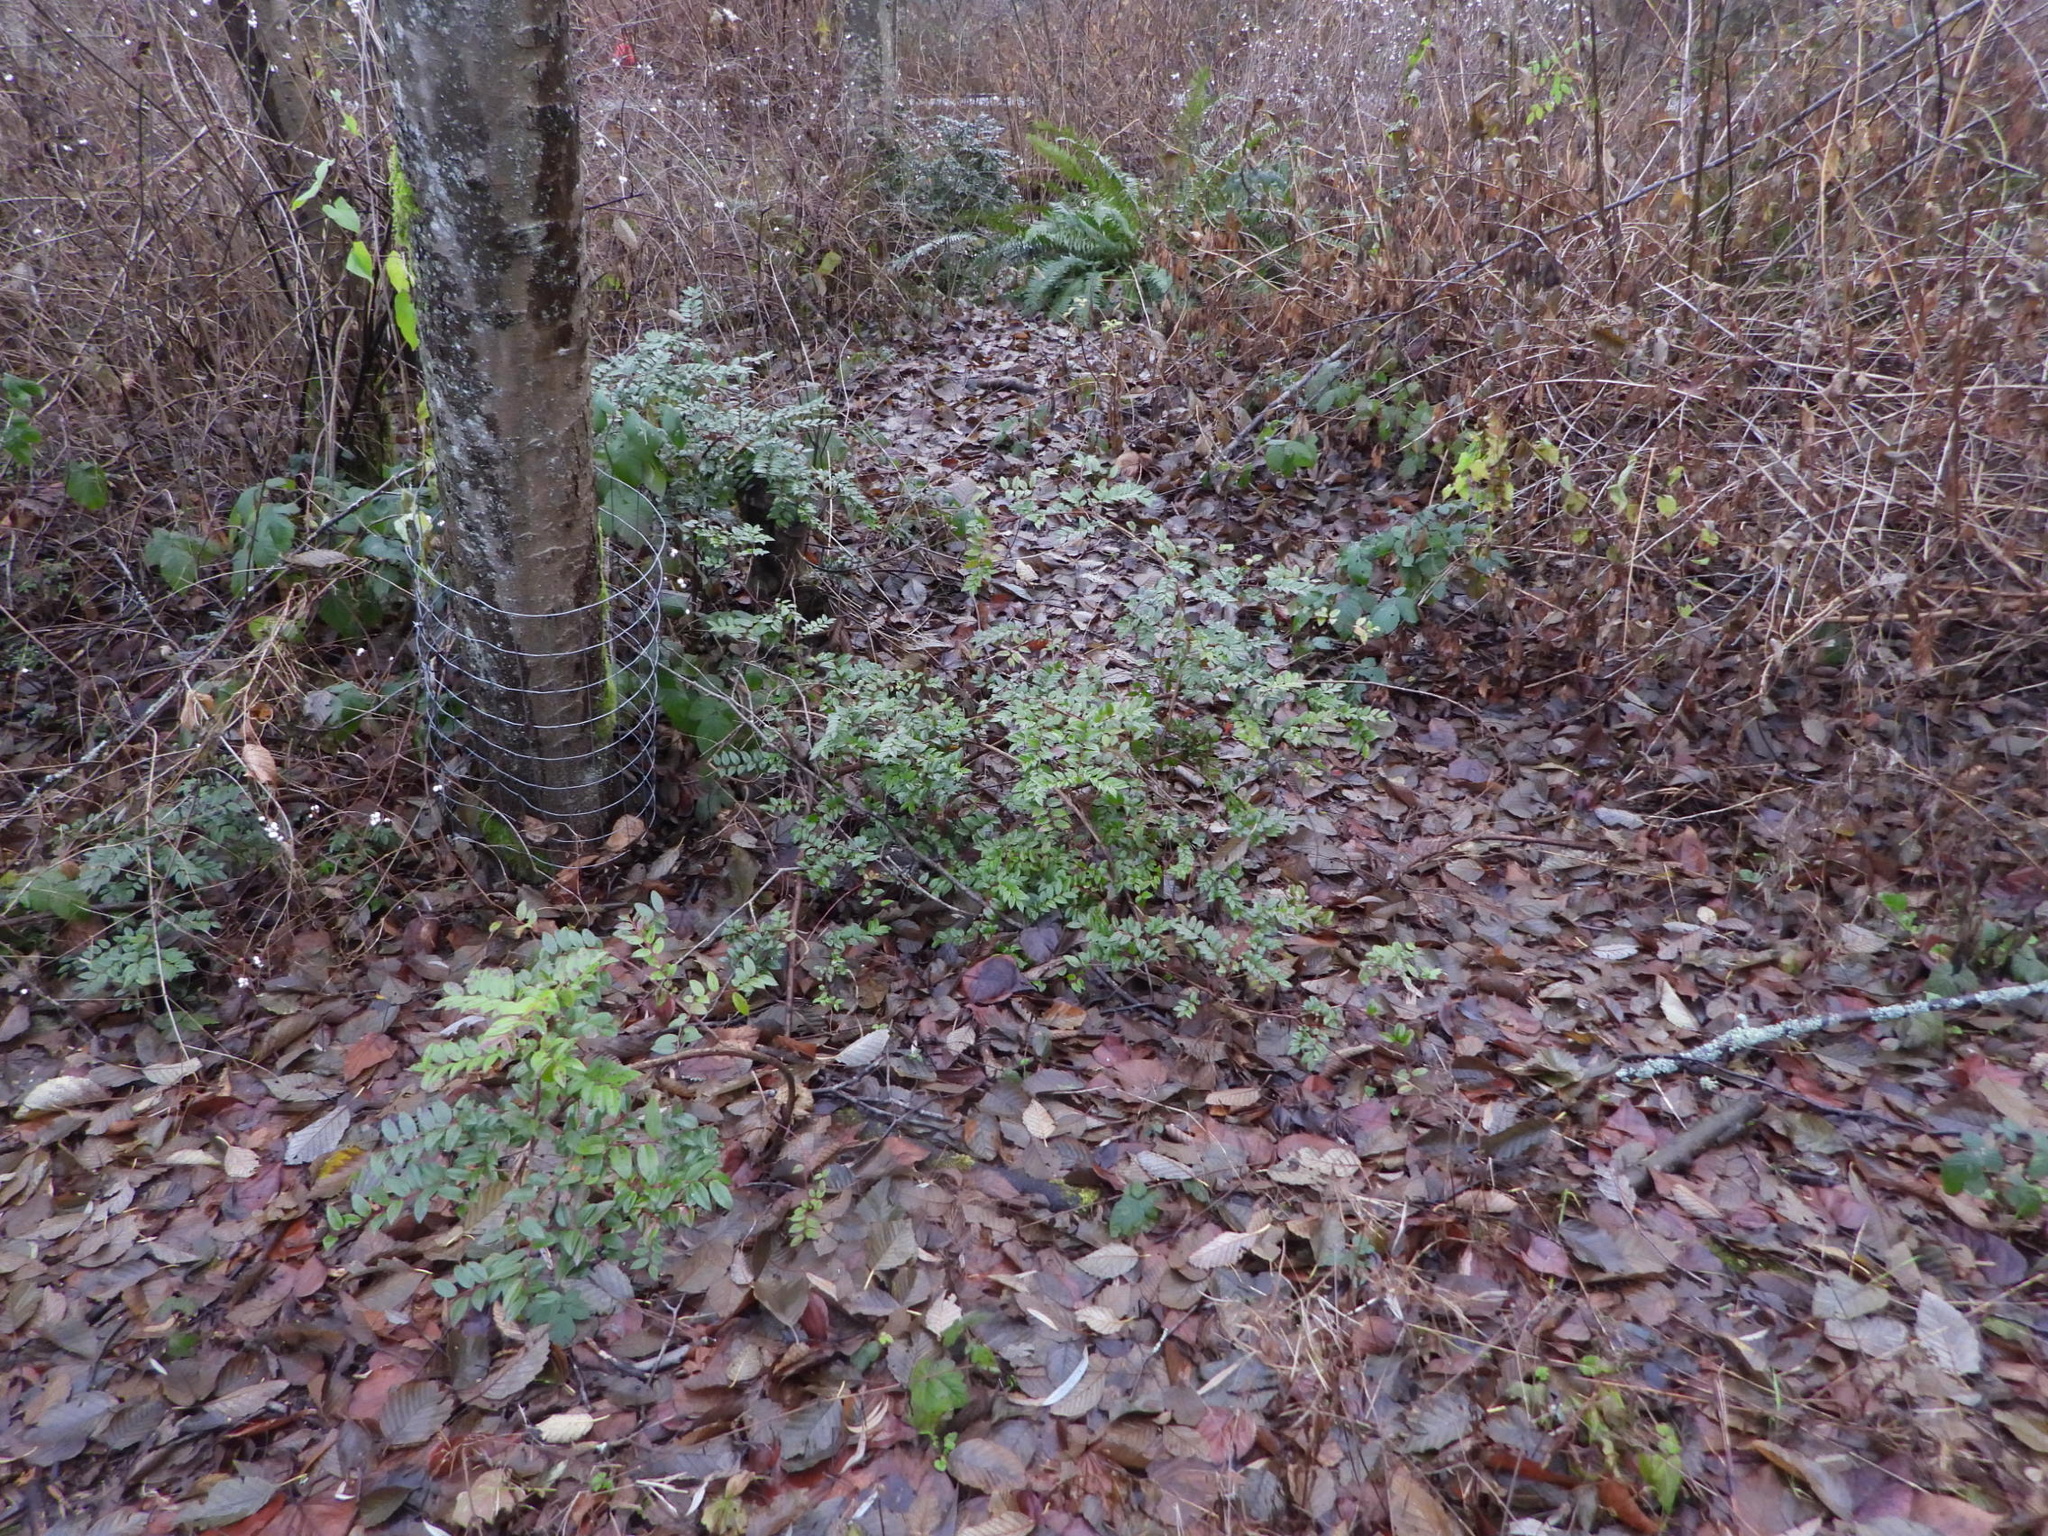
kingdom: Plantae
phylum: Tracheophyta
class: Magnoliopsida
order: Ericales
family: Ericaceae
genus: Vaccinium
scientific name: Vaccinium ovatum
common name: California-huckleberry
